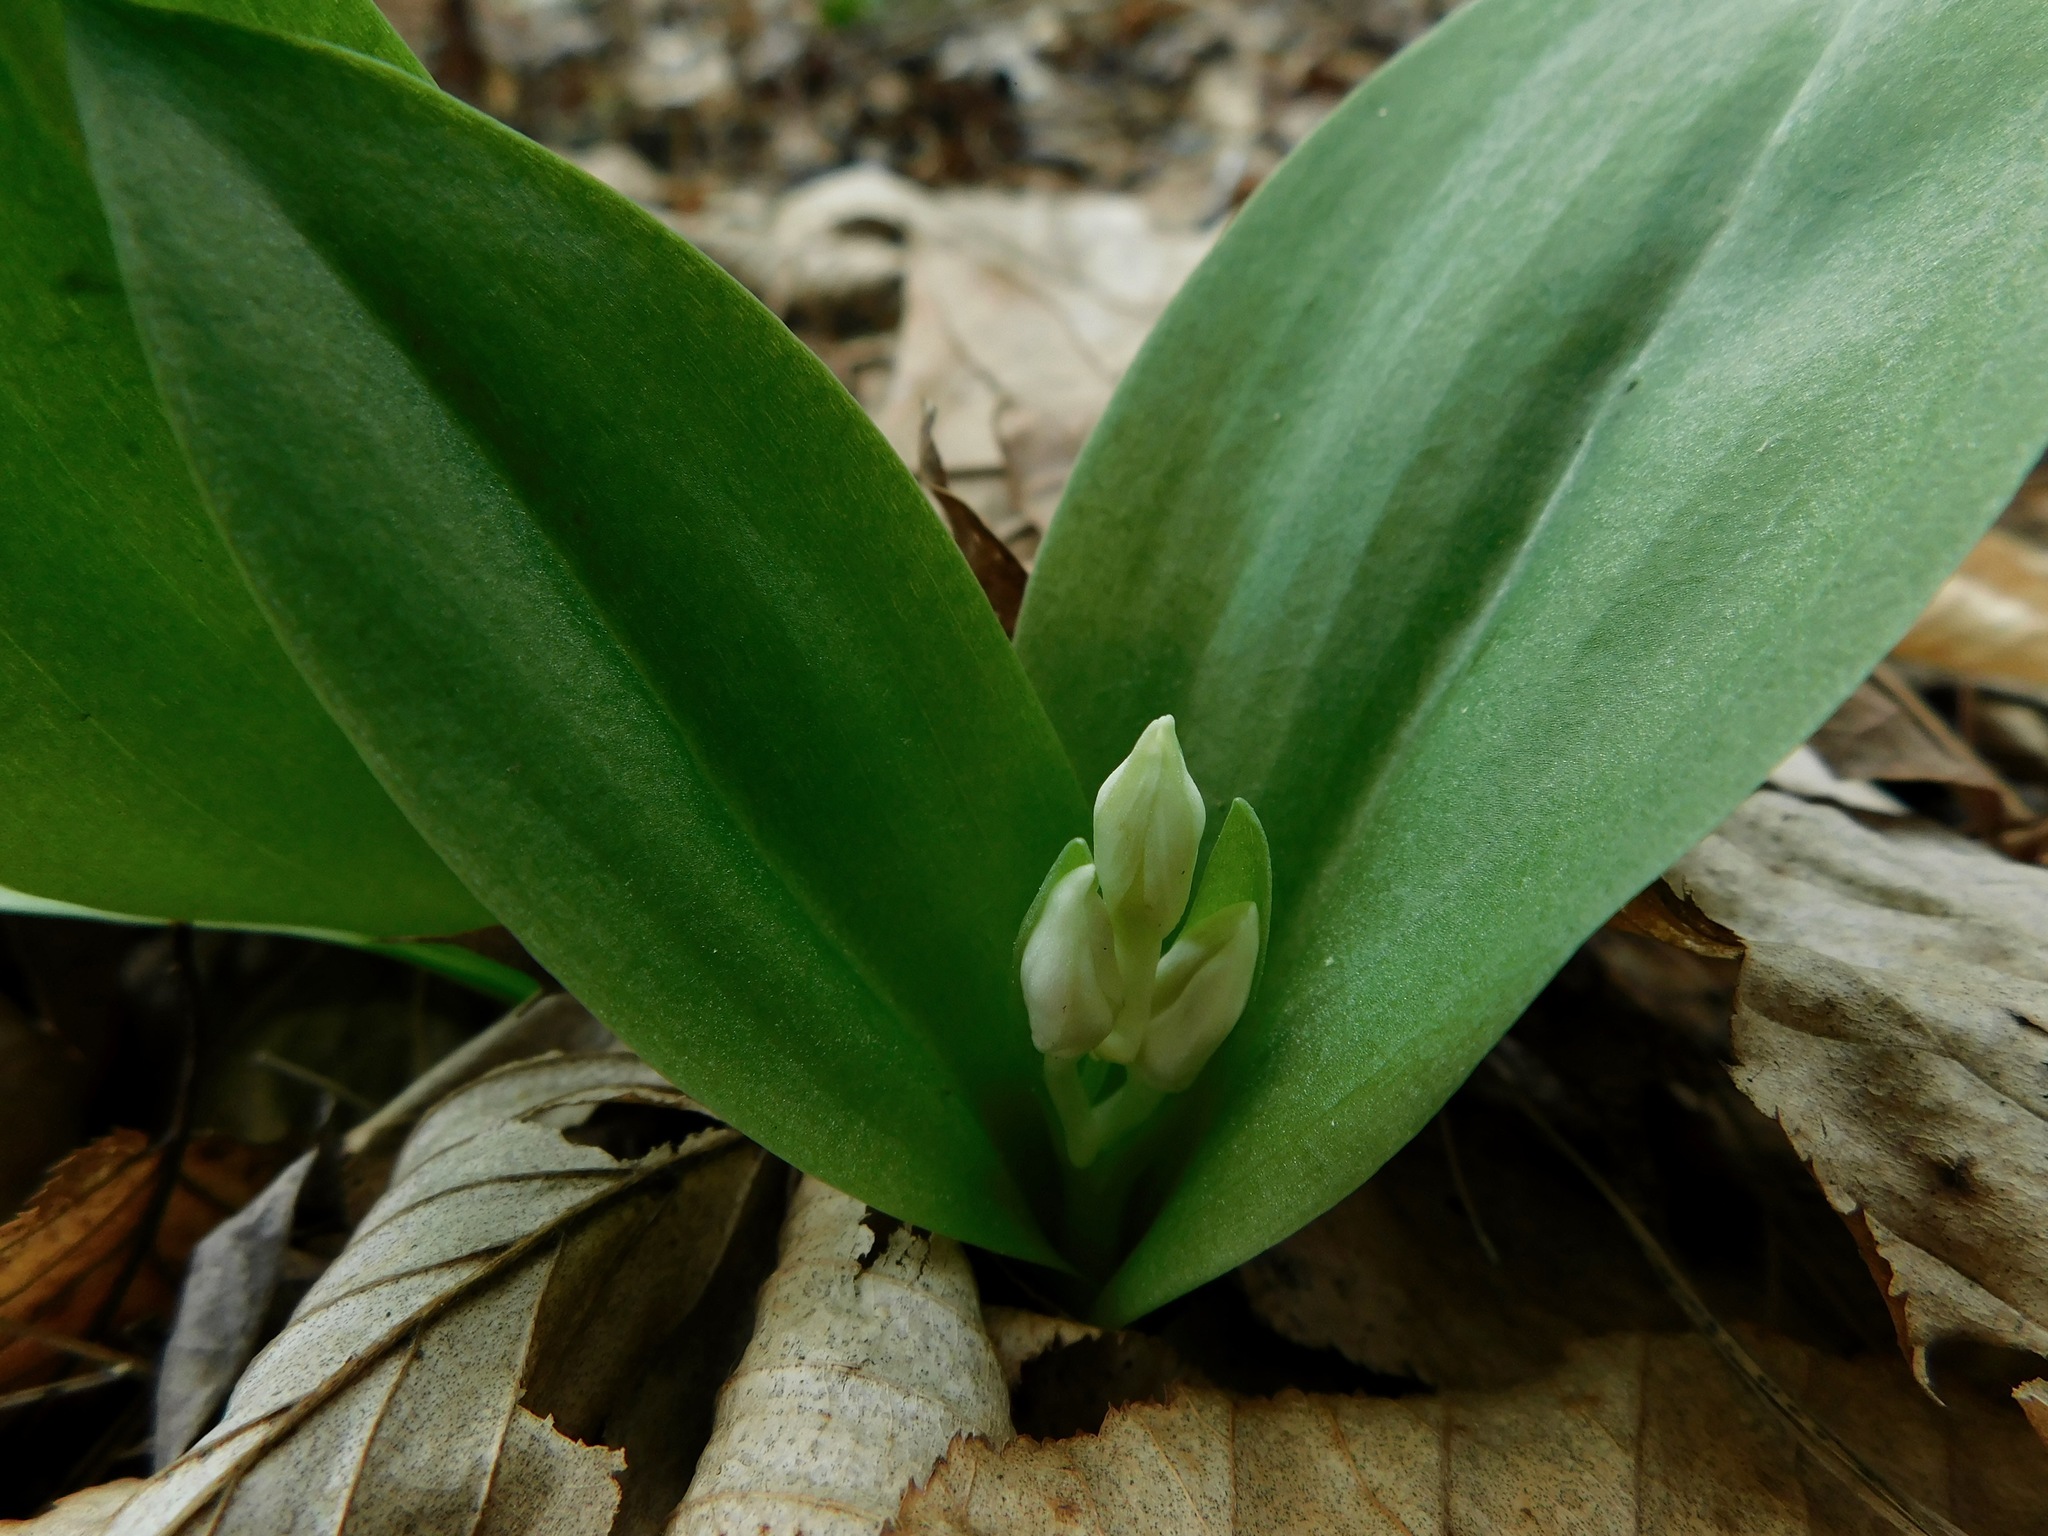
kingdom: Plantae
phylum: Tracheophyta
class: Liliopsida
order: Asparagales
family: Orchidaceae
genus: Galearis
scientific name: Galearis spectabilis
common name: Purple-hooded orchis
